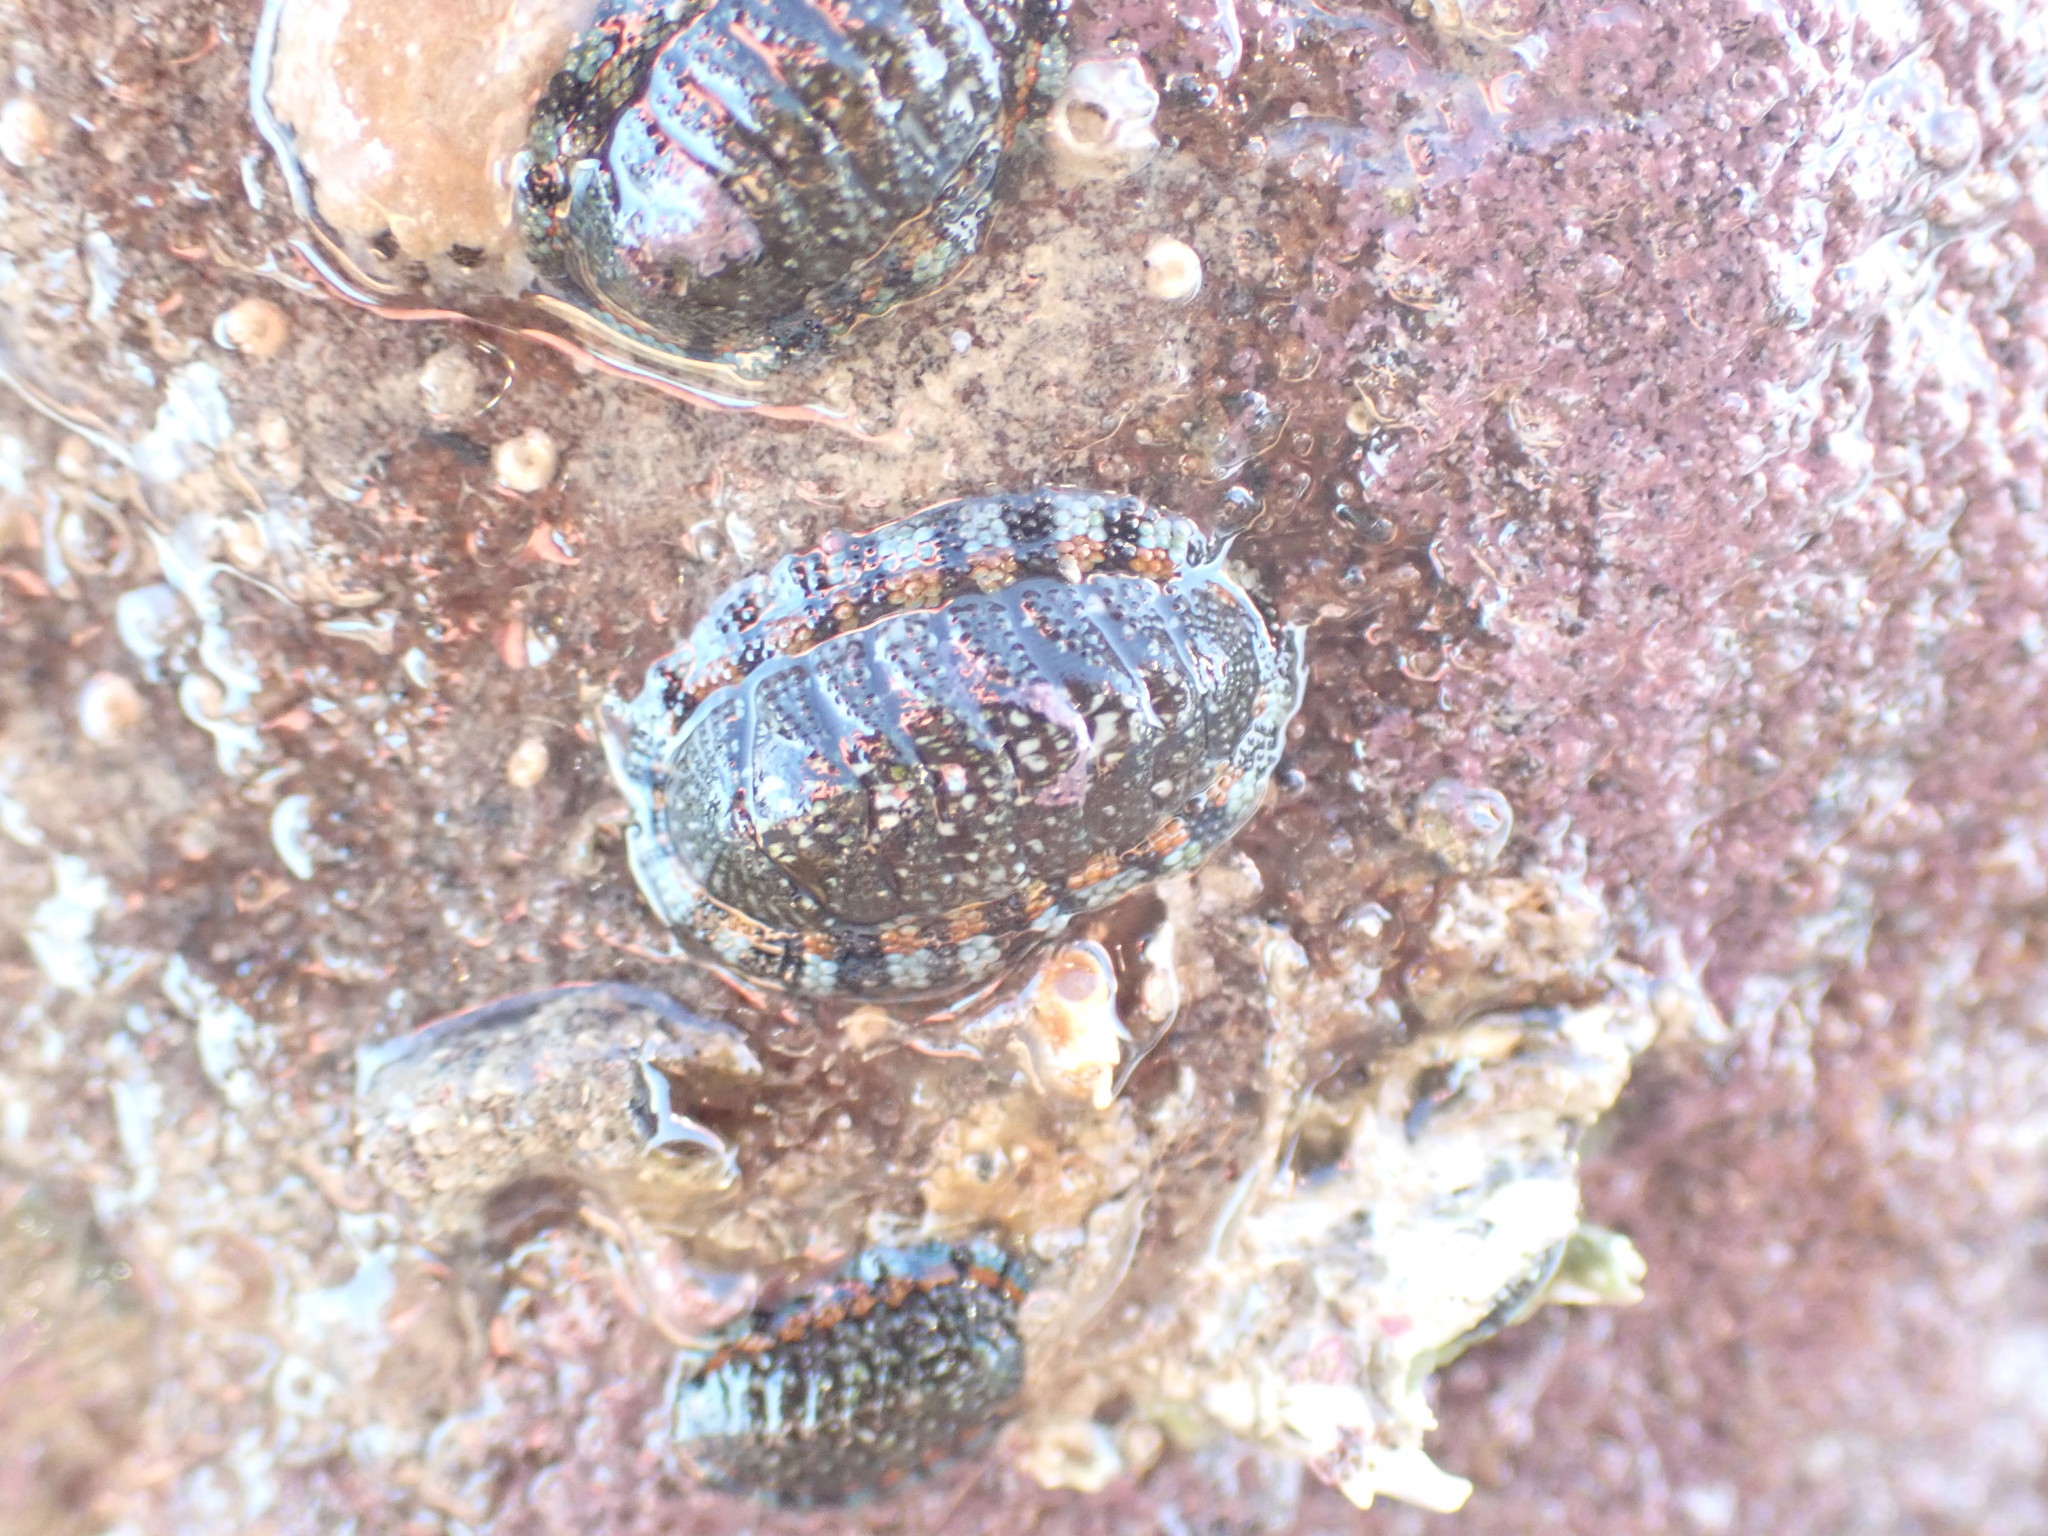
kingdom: Animalia
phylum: Mollusca
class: Polyplacophora
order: Chitonida
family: Chitonidae
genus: Sypharochiton
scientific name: Sypharochiton sinclairi
